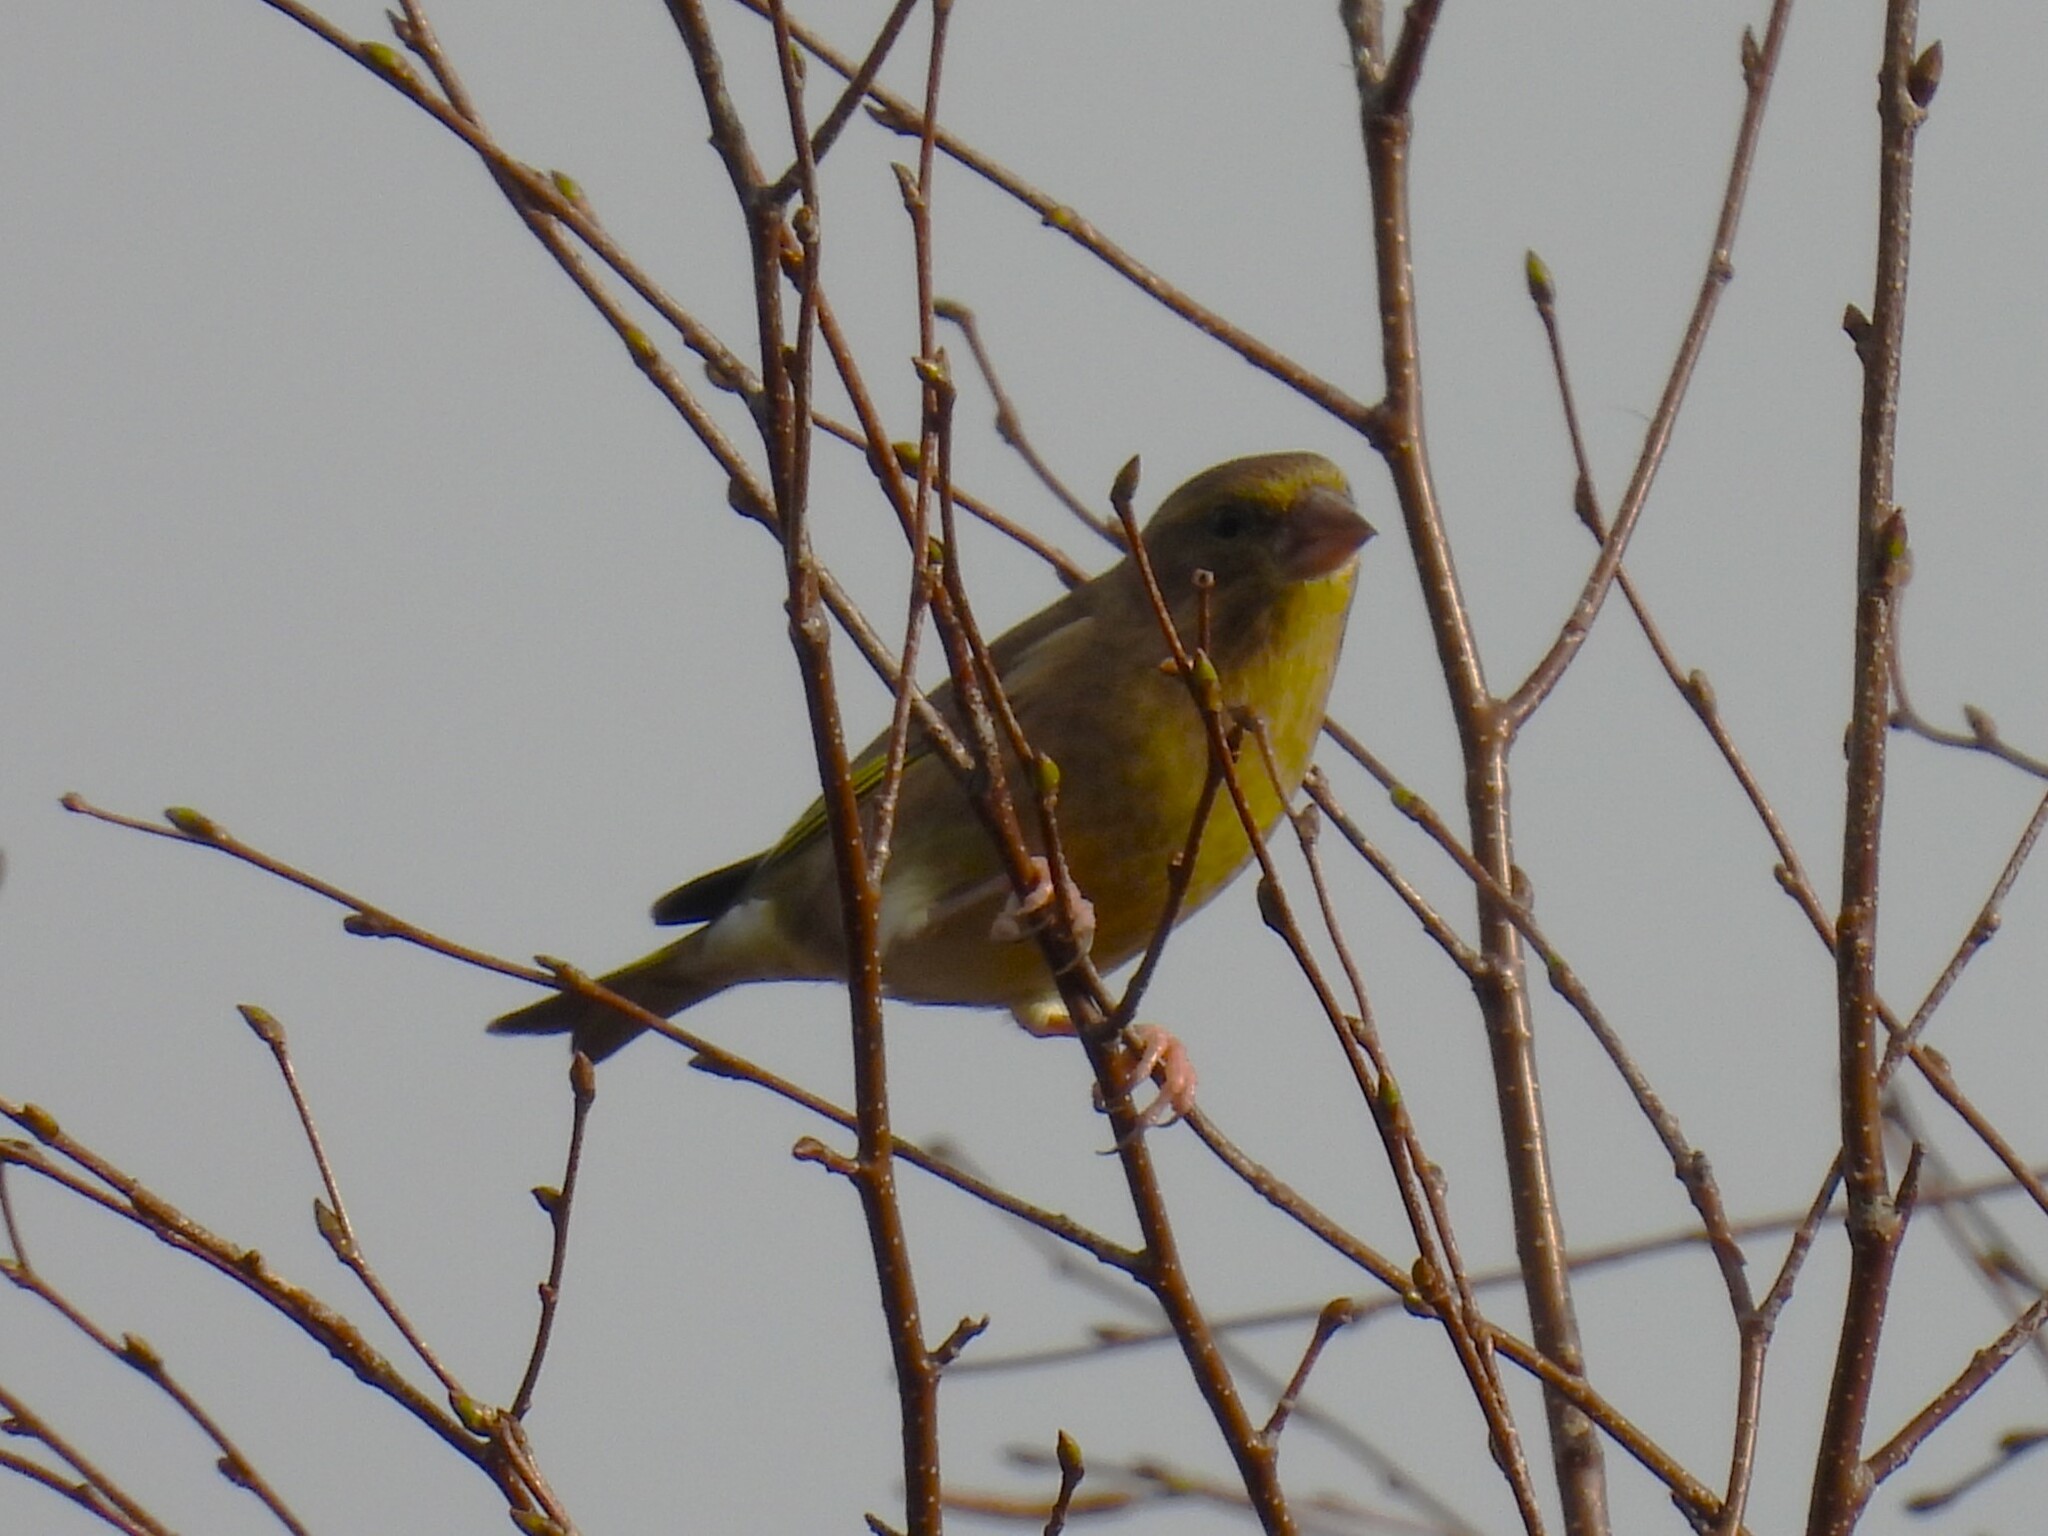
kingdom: Plantae
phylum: Tracheophyta
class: Liliopsida
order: Poales
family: Poaceae
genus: Chloris
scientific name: Chloris chloris
